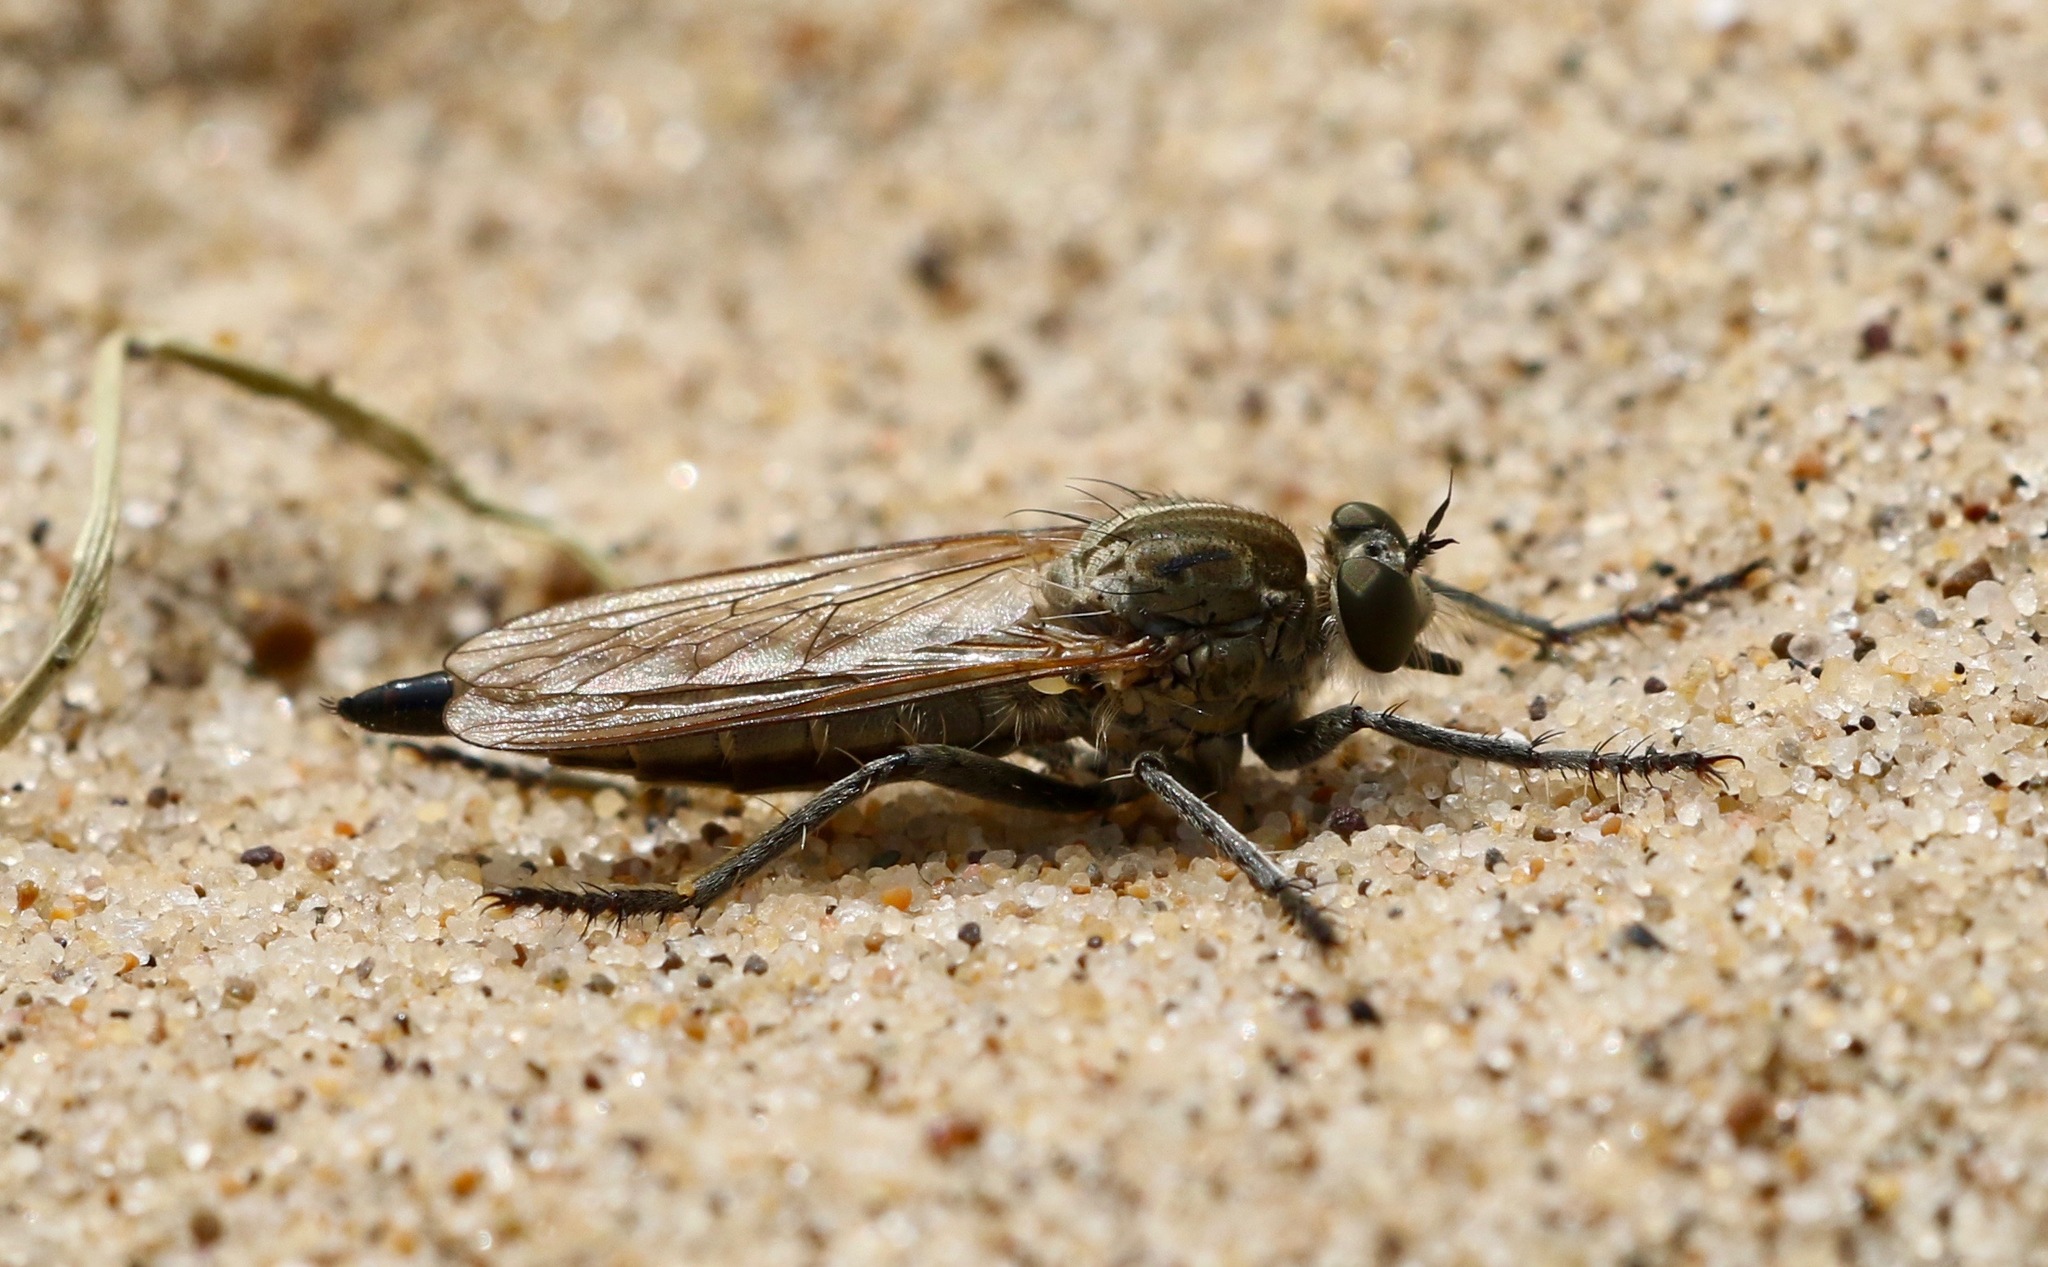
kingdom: Animalia
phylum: Arthropoda
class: Insecta
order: Diptera
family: Asilidae
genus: Philonicus
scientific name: Philonicus albiceps
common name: Dune robberfly
